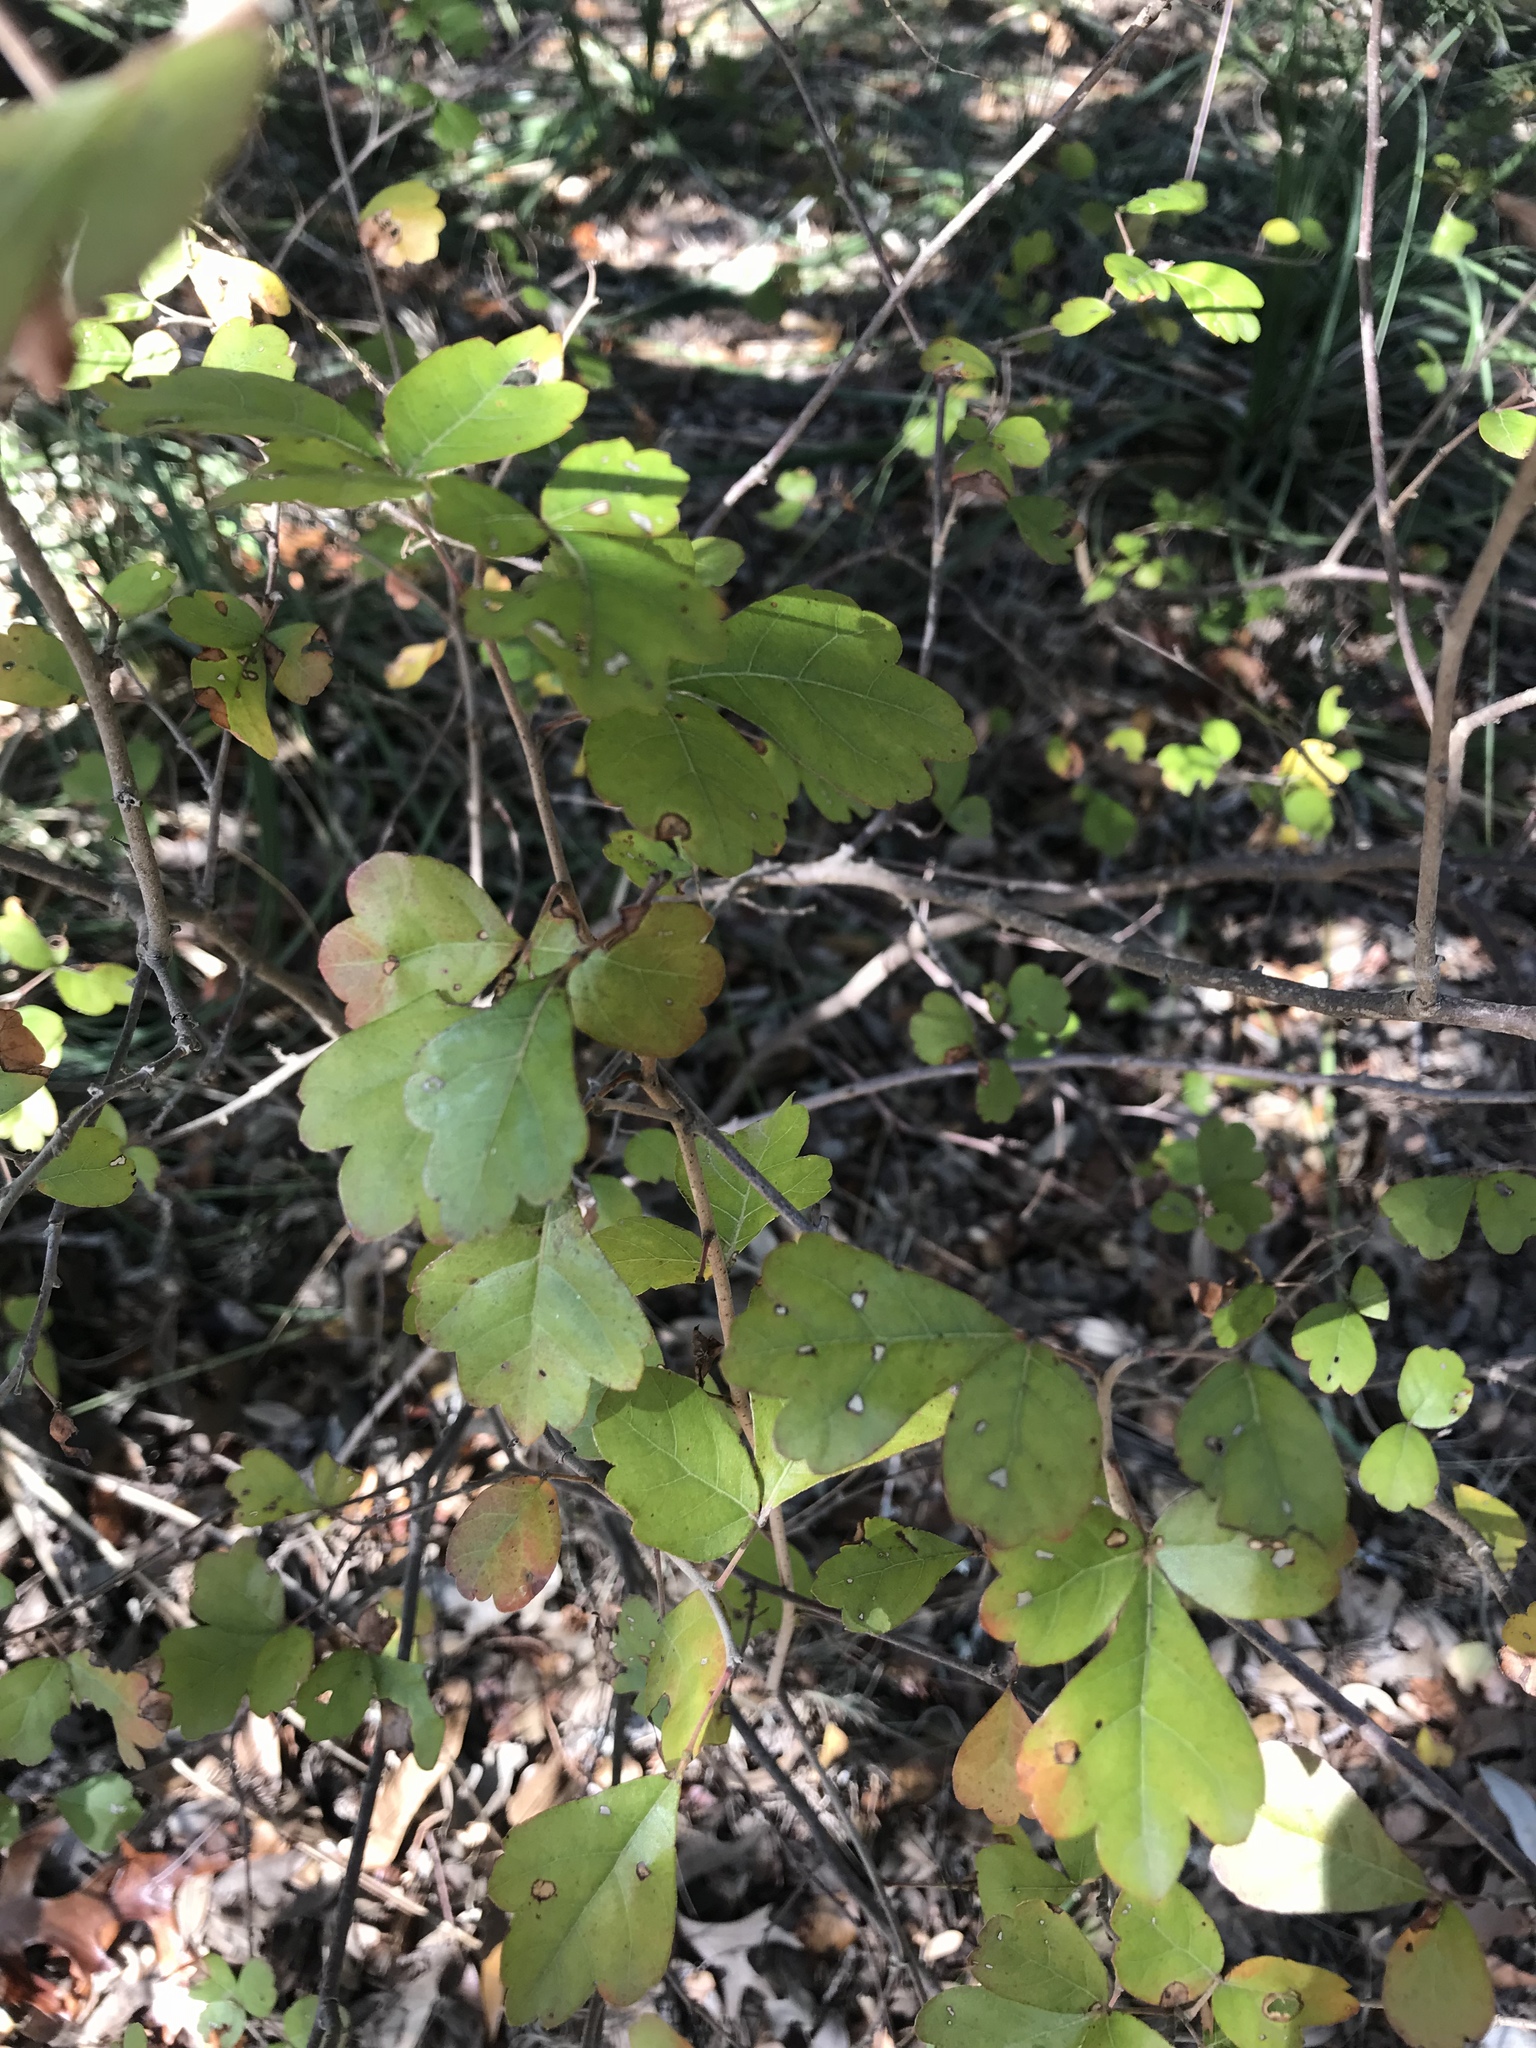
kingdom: Plantae
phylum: Tracheophyta
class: Magnoliopsida
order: Sapindales
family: Anacardiaceae
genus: Rhus
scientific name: Rhus aromatica
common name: Aromatic sumac
